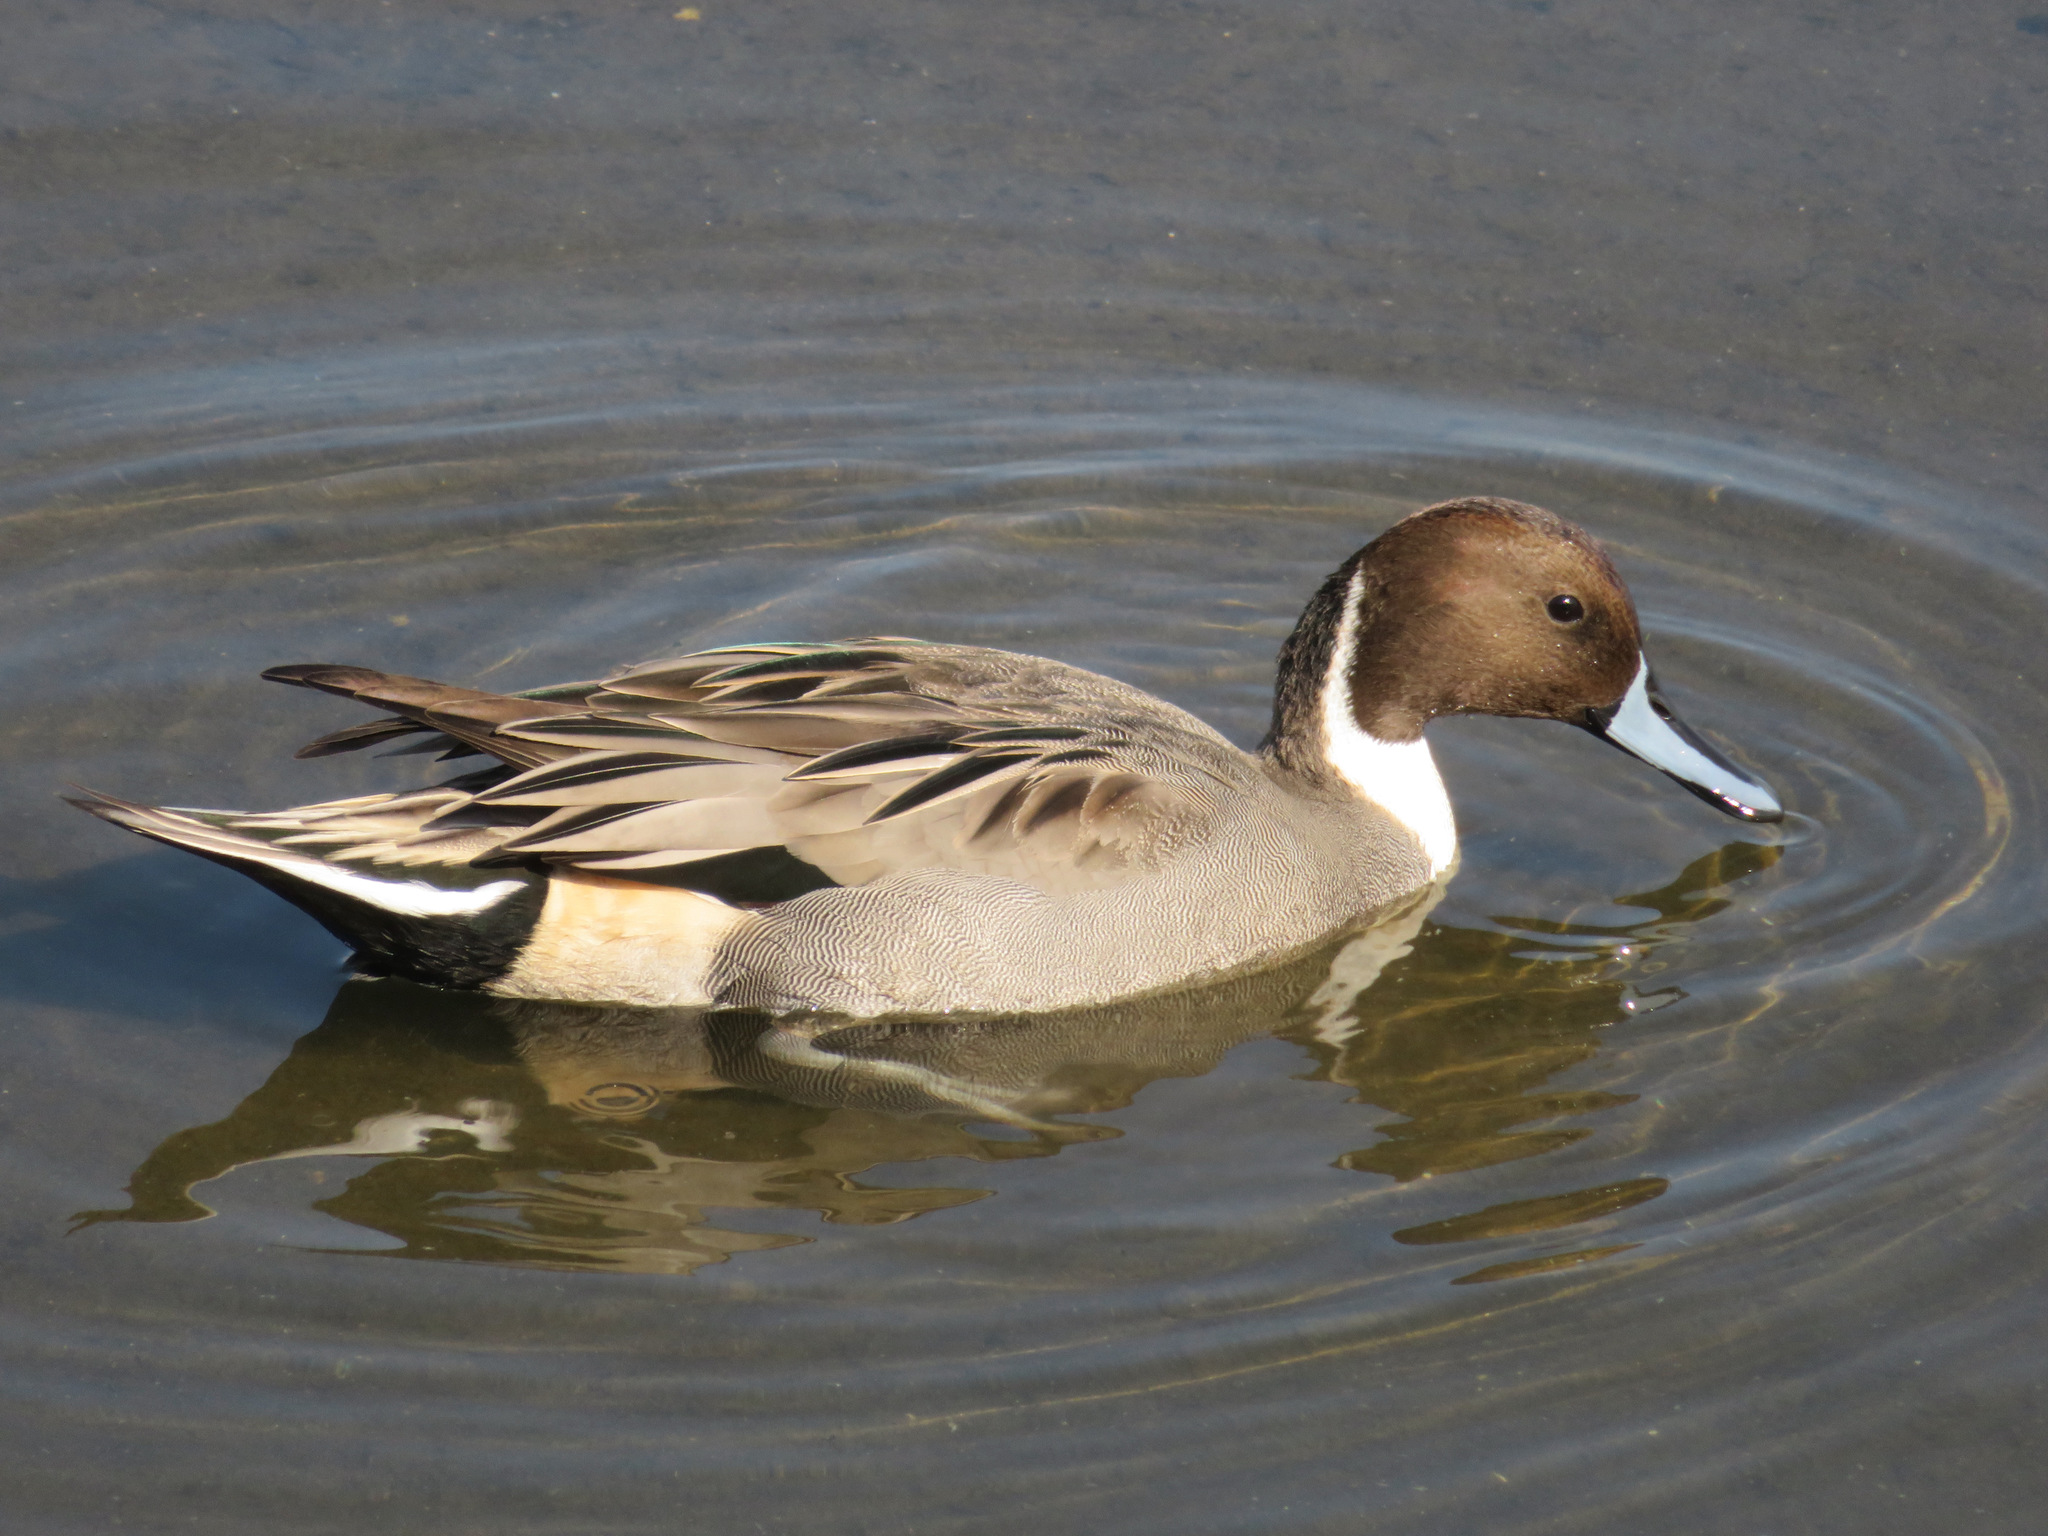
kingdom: Animalia
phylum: Chordata
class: Aves
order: Anseriformes
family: Anatidae
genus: Anas
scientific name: Anas acuta
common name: Northern pintail
